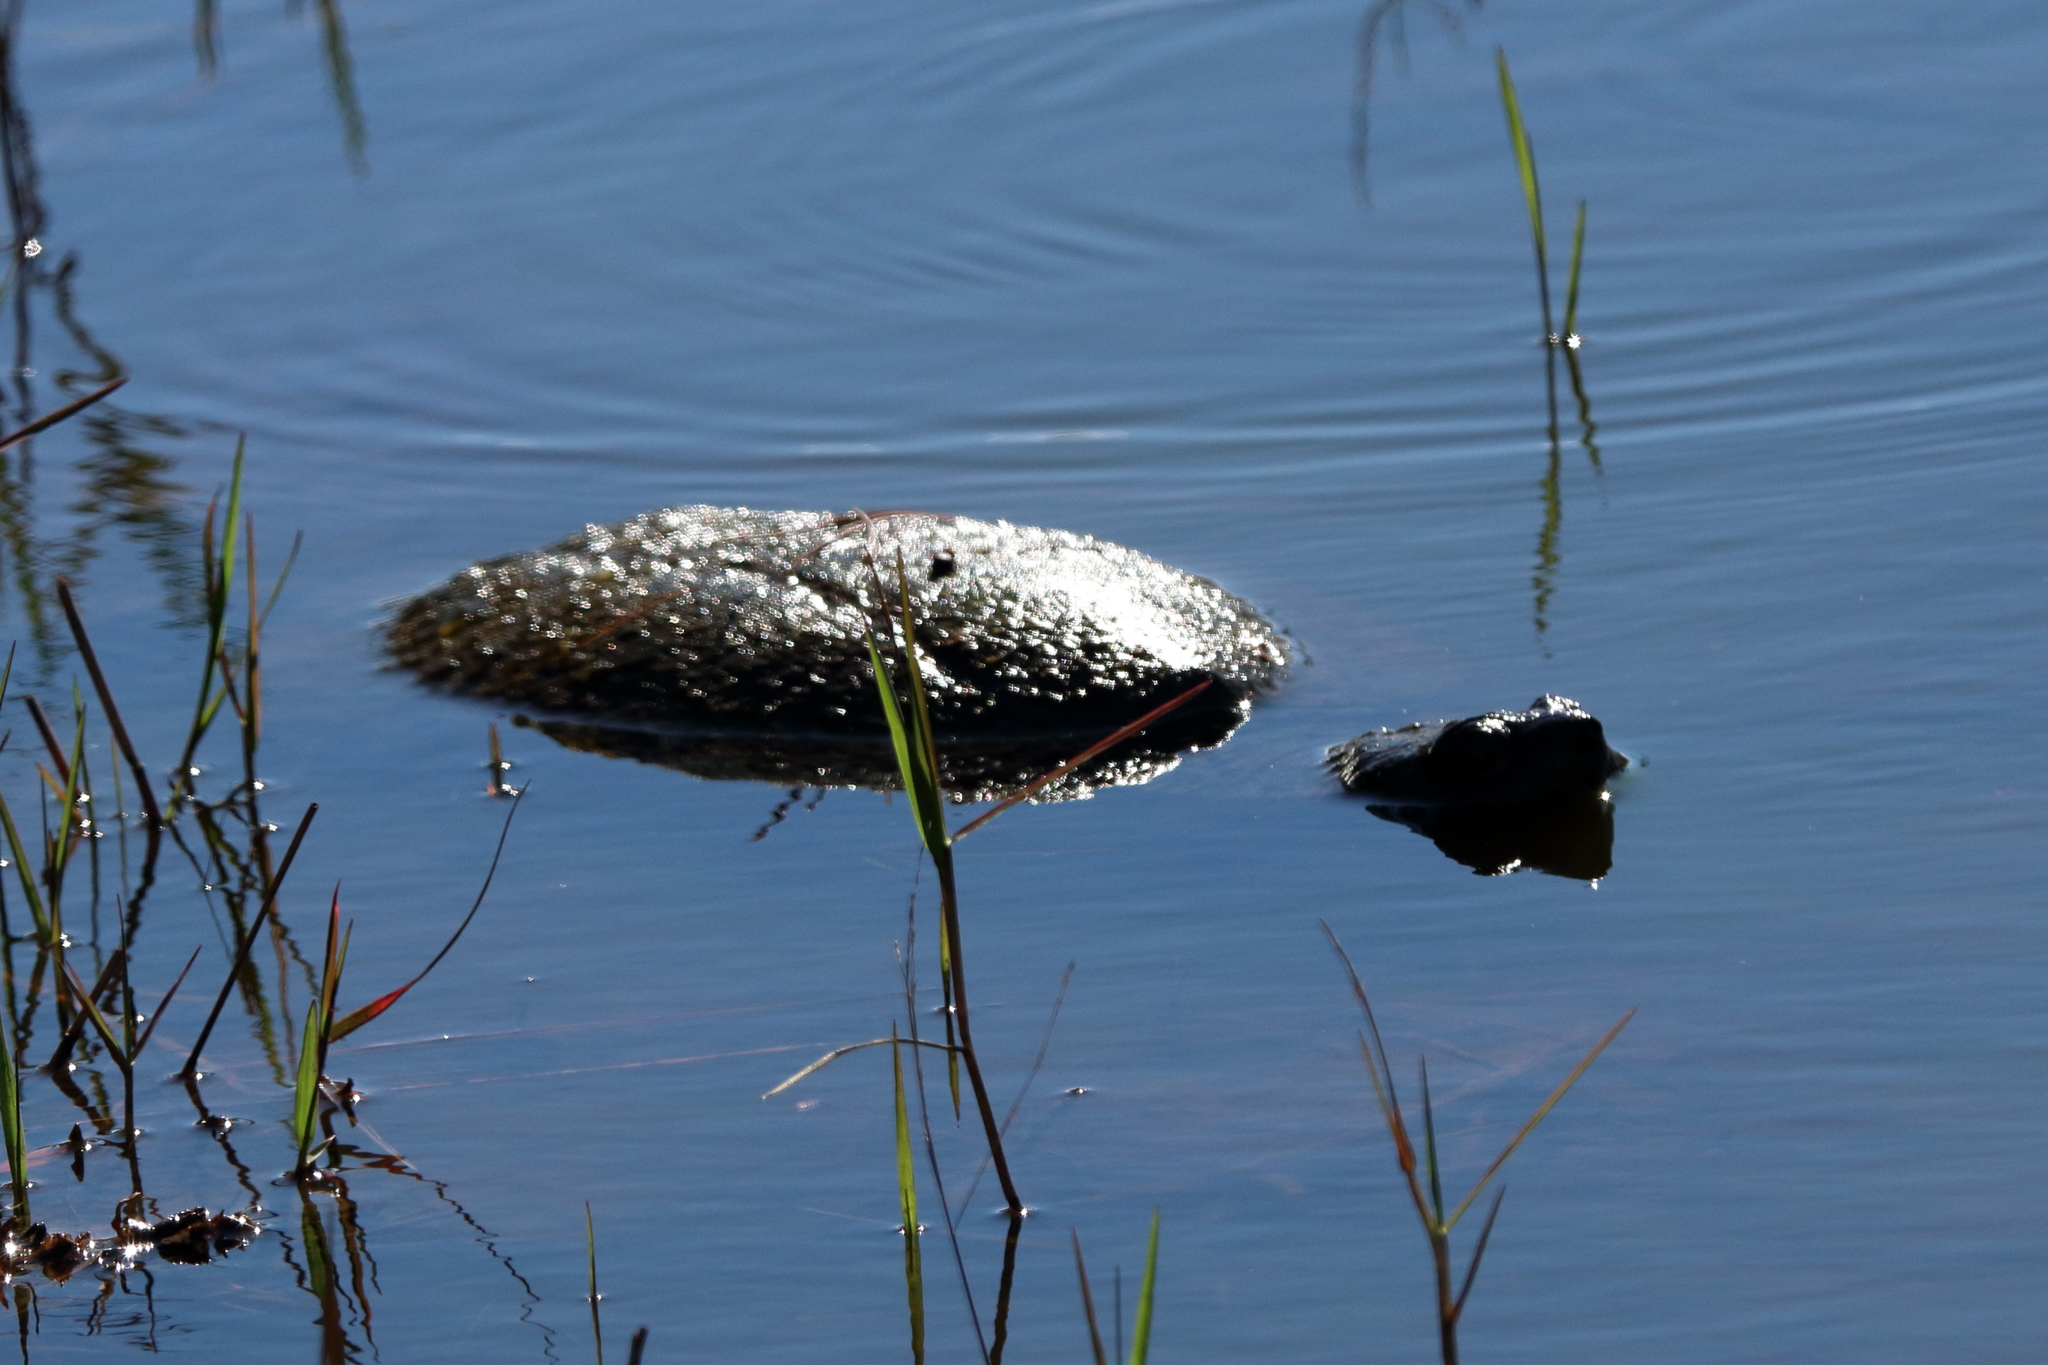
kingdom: Animalia
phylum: Chordata
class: Testudines
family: Chelydridae
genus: Chelydra
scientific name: Chelydra serpentina
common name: Common snapping turtle
